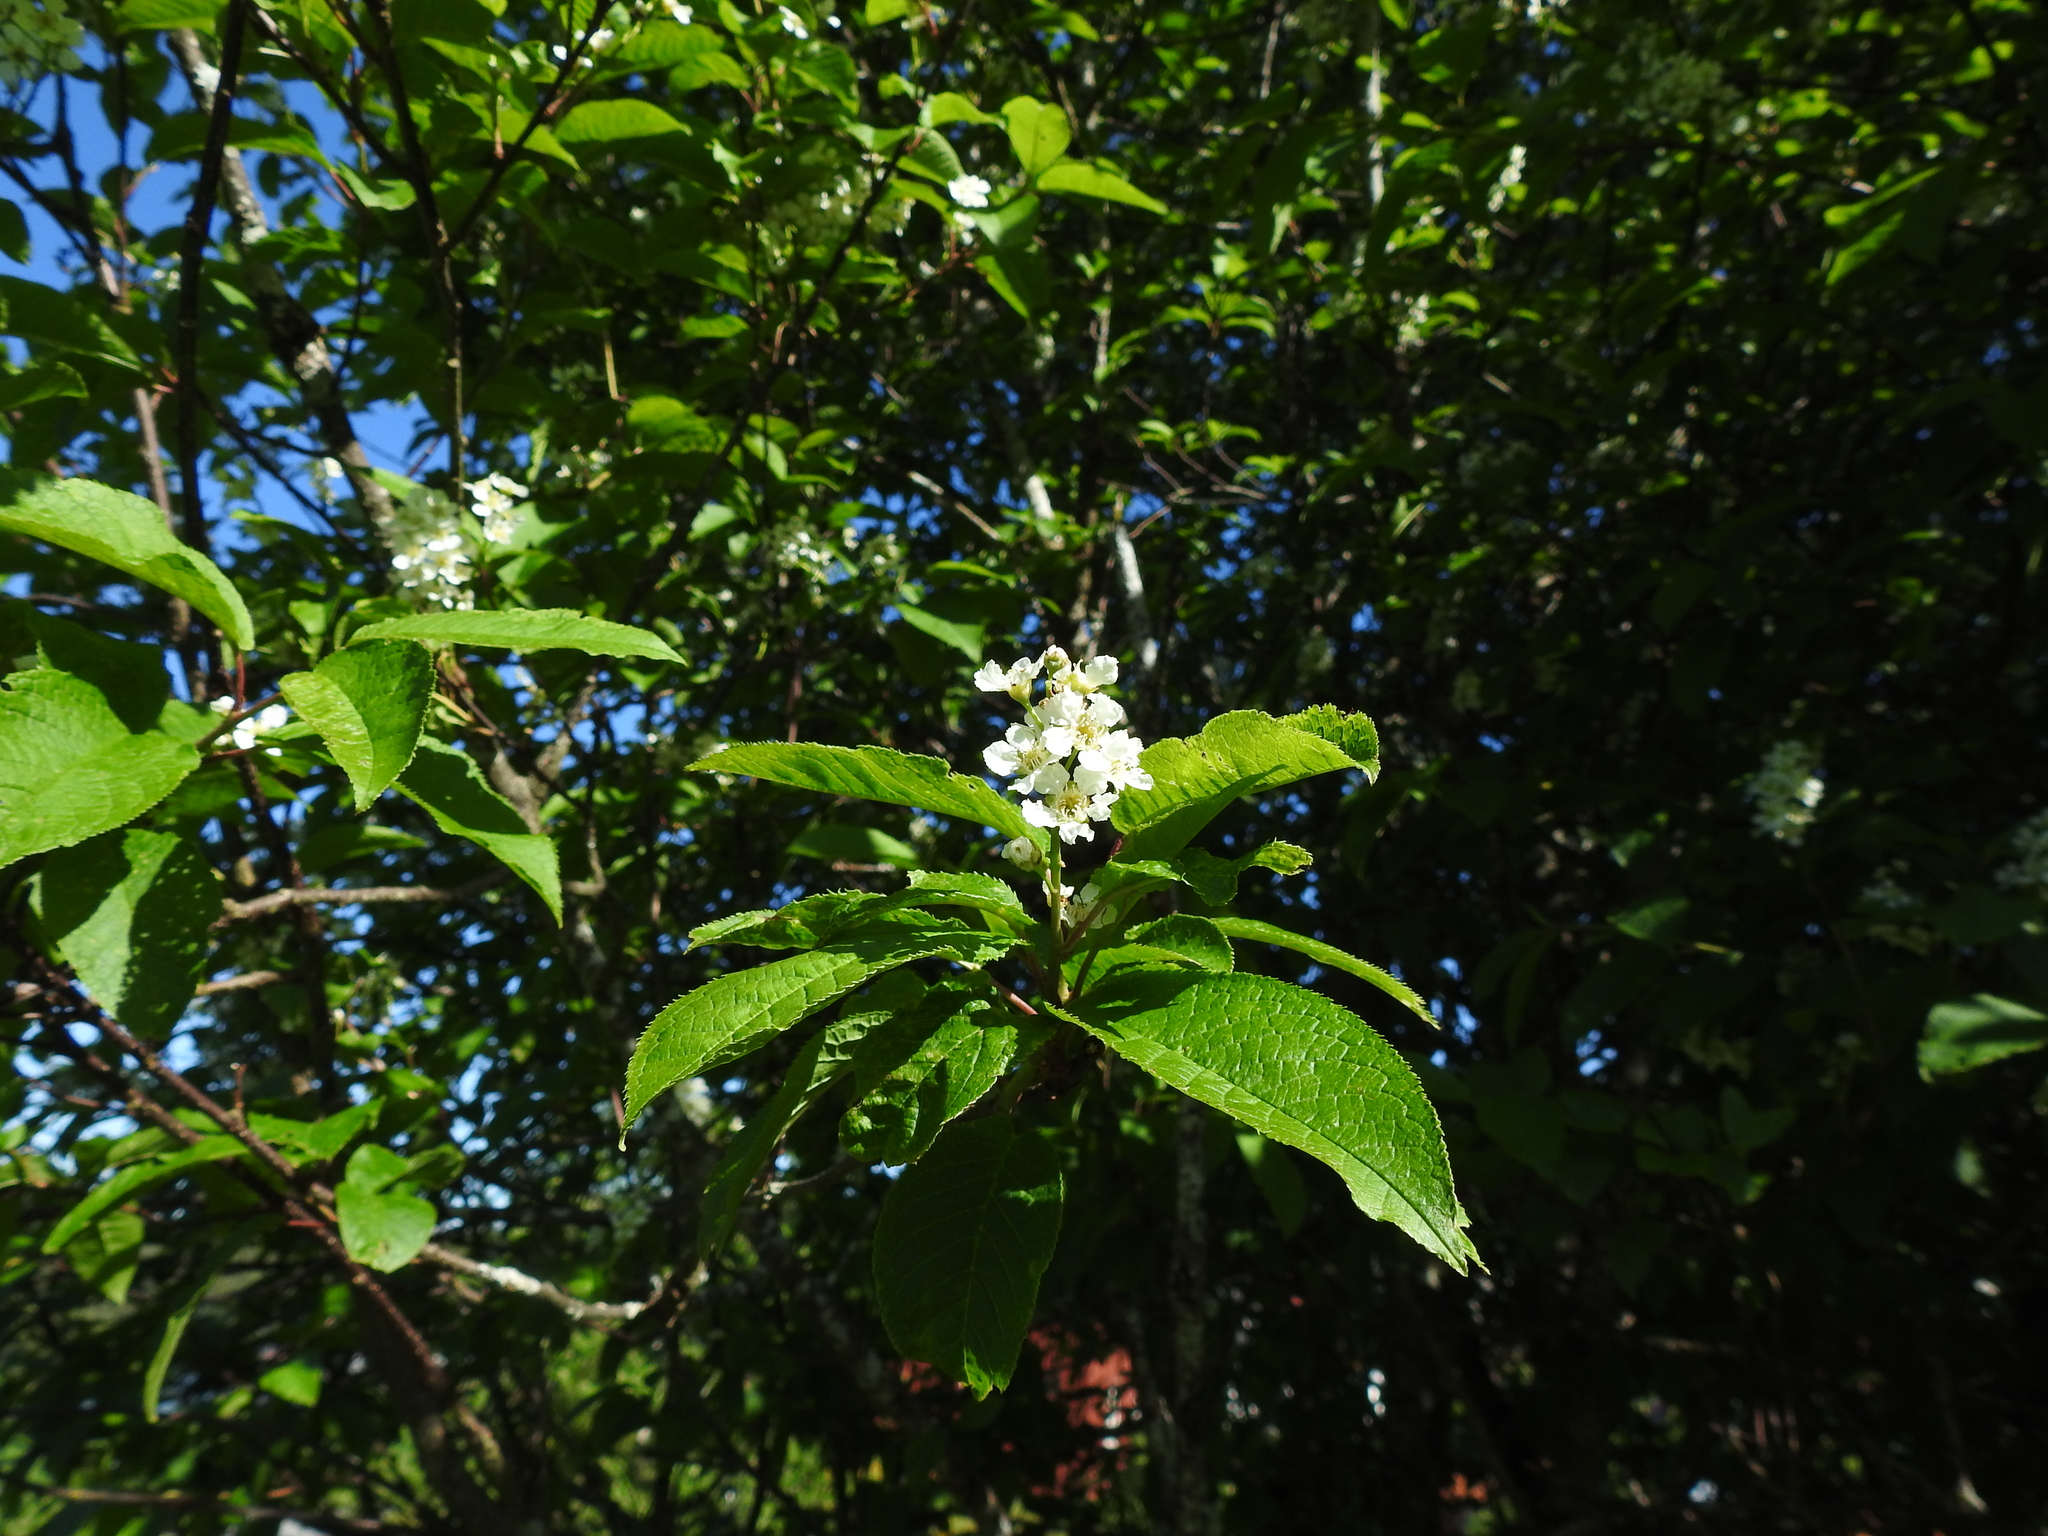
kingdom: Plantae
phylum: Tracheophyta
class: Magnoliopsida
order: Rosales
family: Rosaceae
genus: Prunus
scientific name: Prunus padus
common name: Bird cherry
